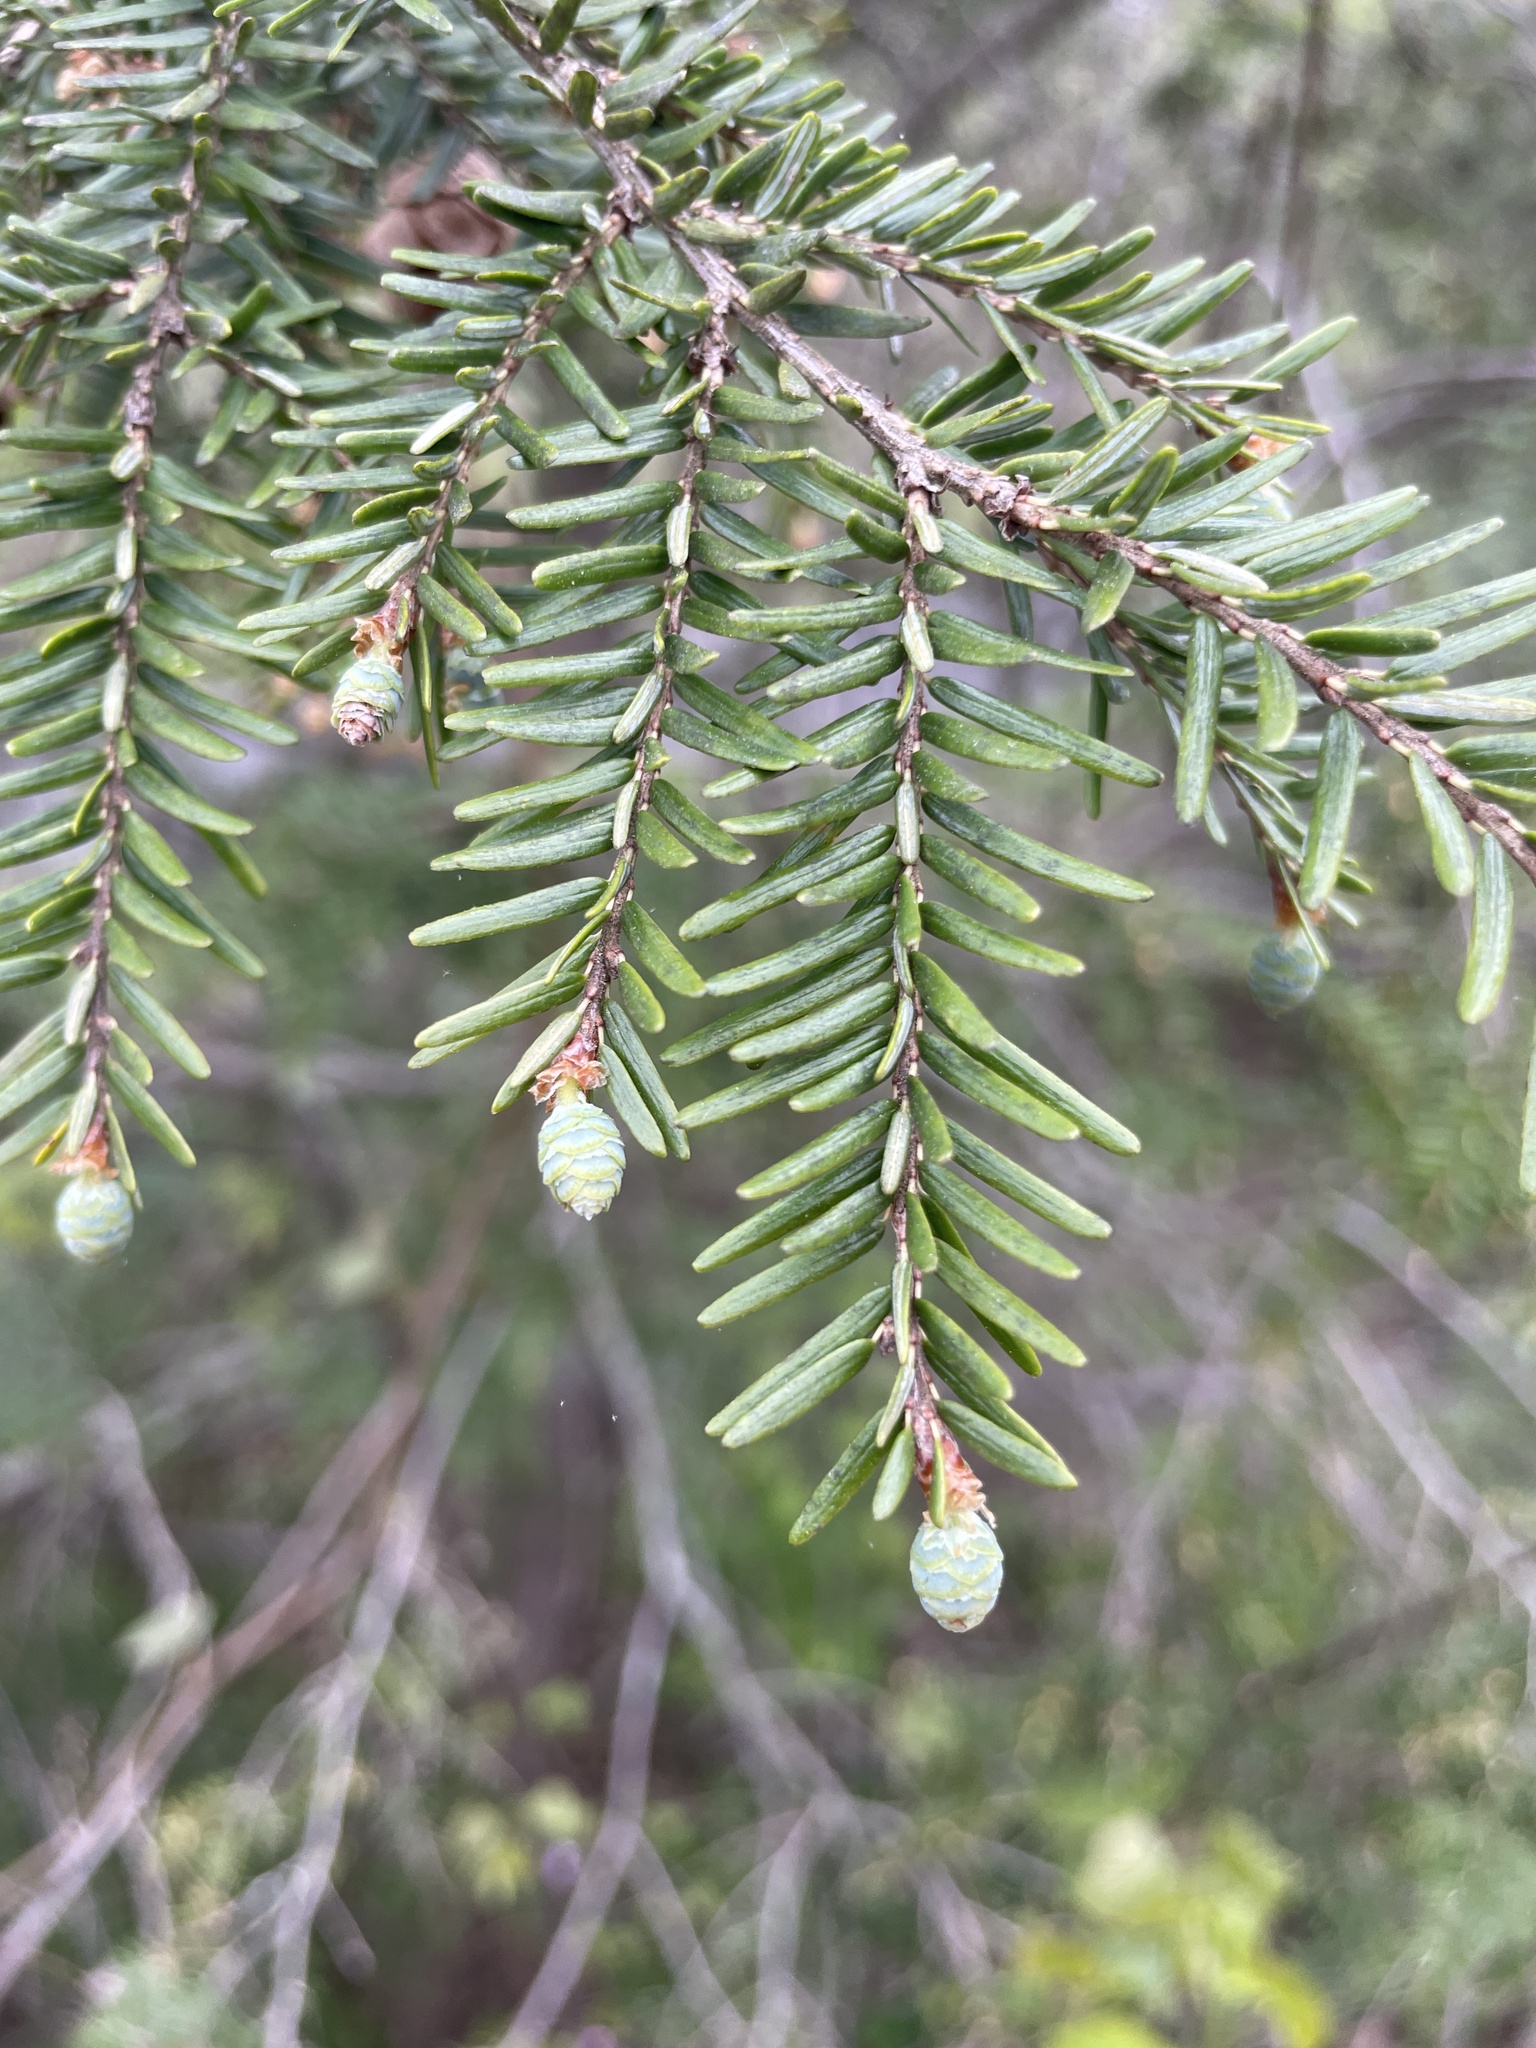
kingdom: Plantae
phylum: Tracheophyta
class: Pinopsida
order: Pinales
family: Pinaceae
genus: Tsuga
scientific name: Tsuga canadensis
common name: Eastern hemlock
